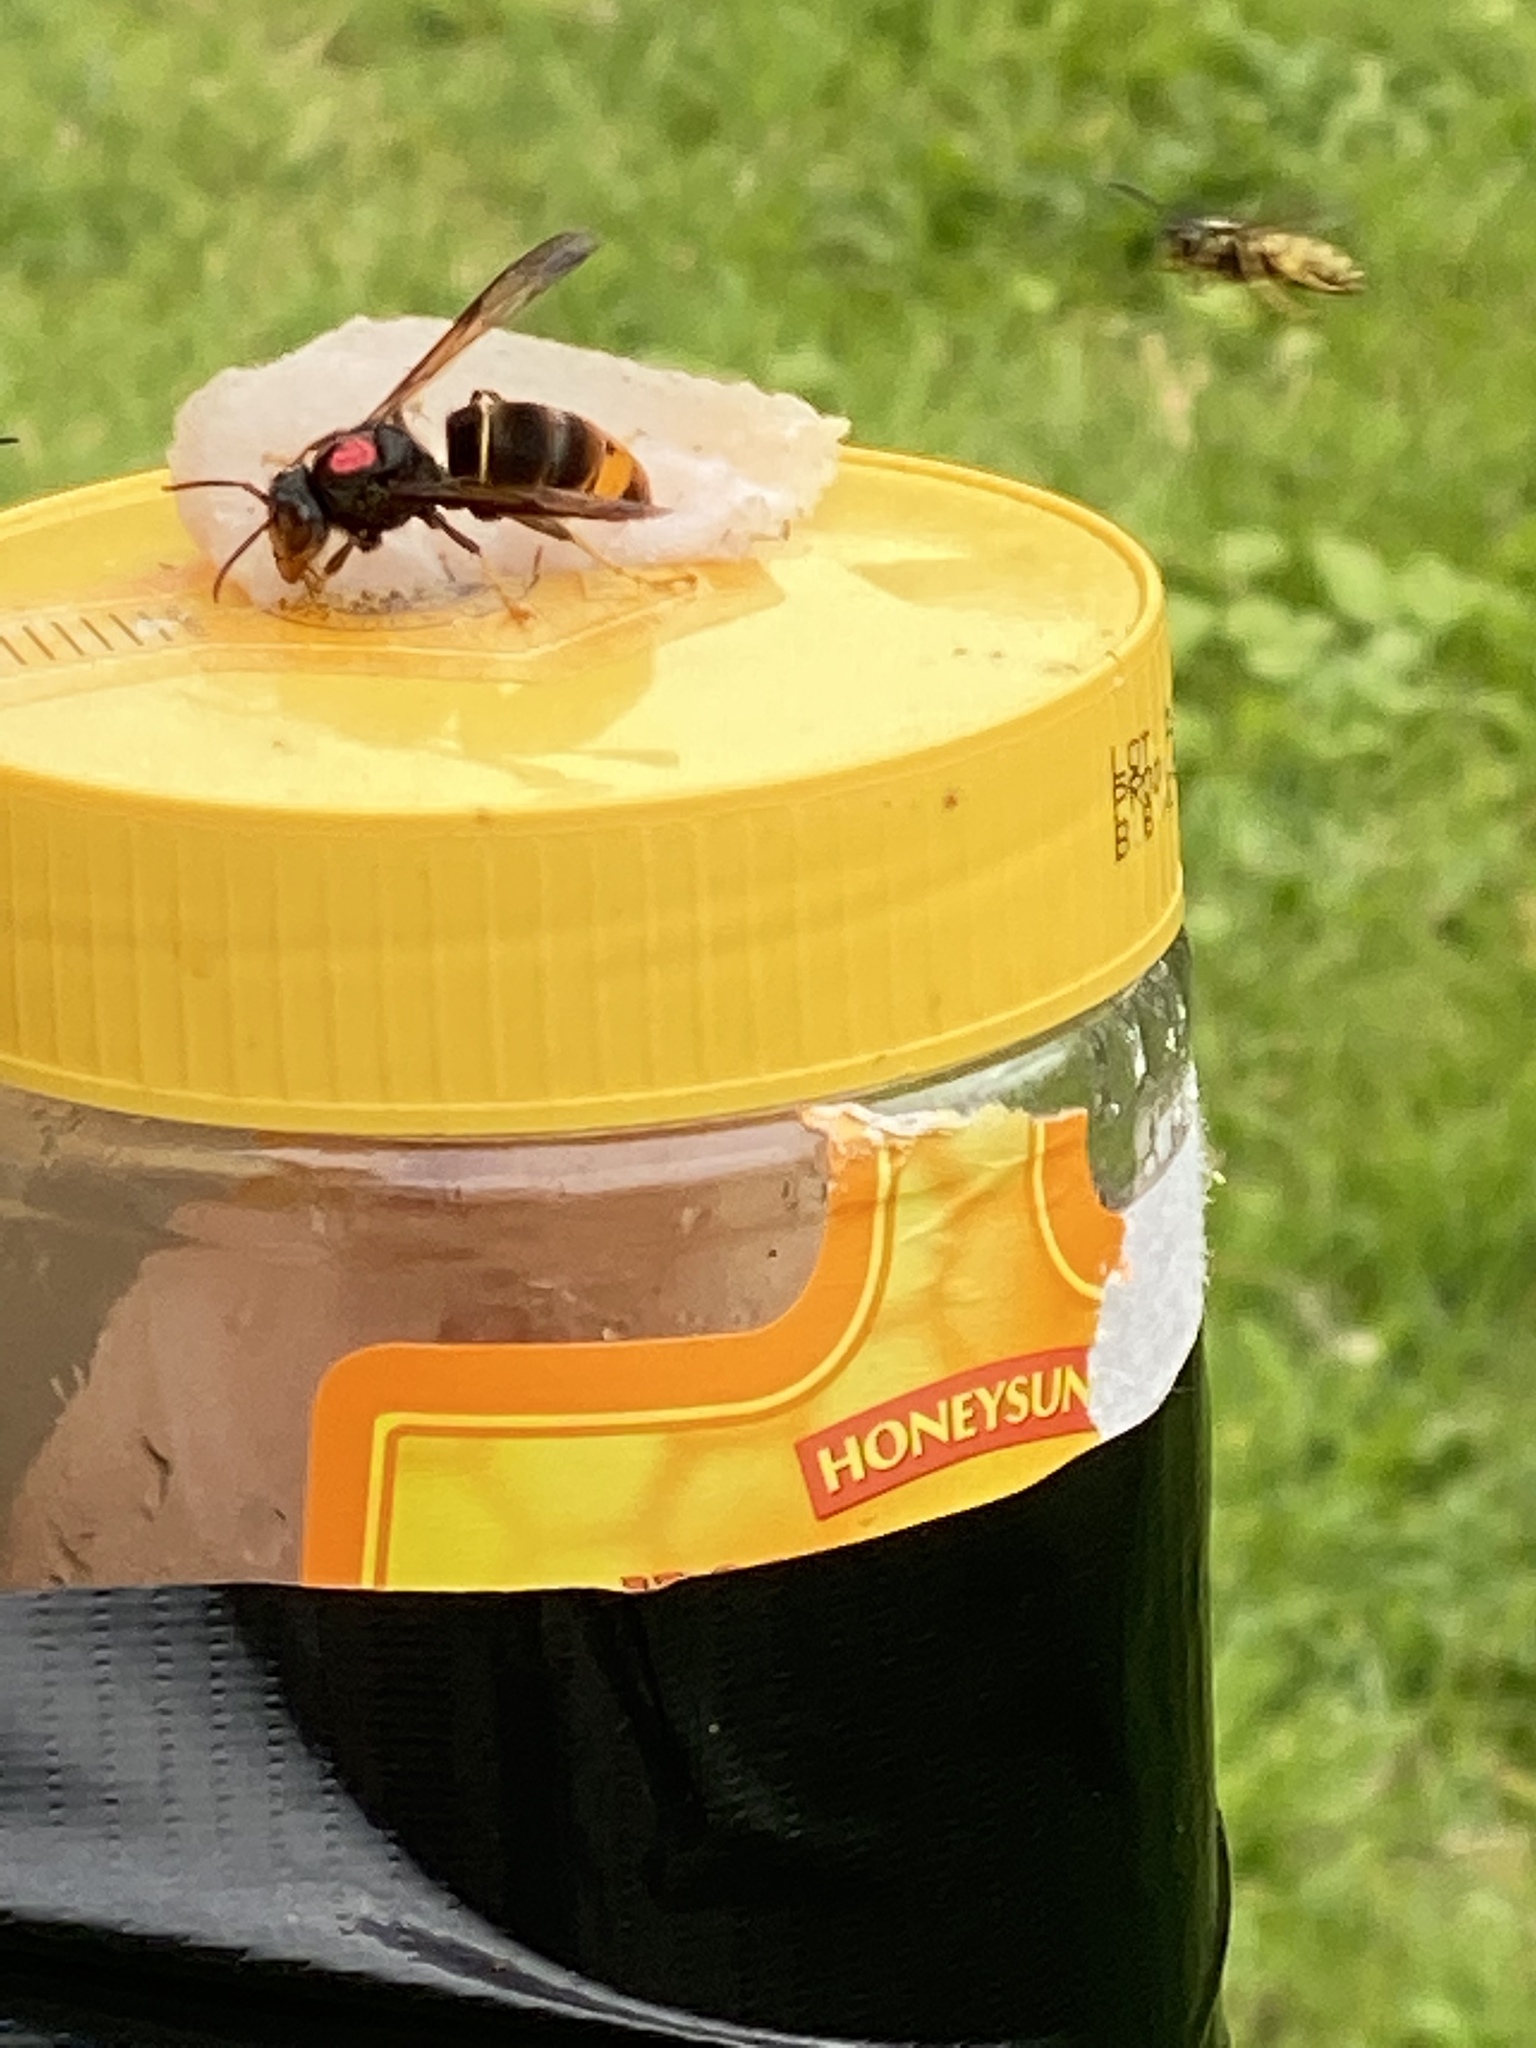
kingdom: Animalia
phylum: Arthropoda
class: Insecta
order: Hymenoptera
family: Vespidae
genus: Vespa
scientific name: Vespa velutina
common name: Asian hornet
